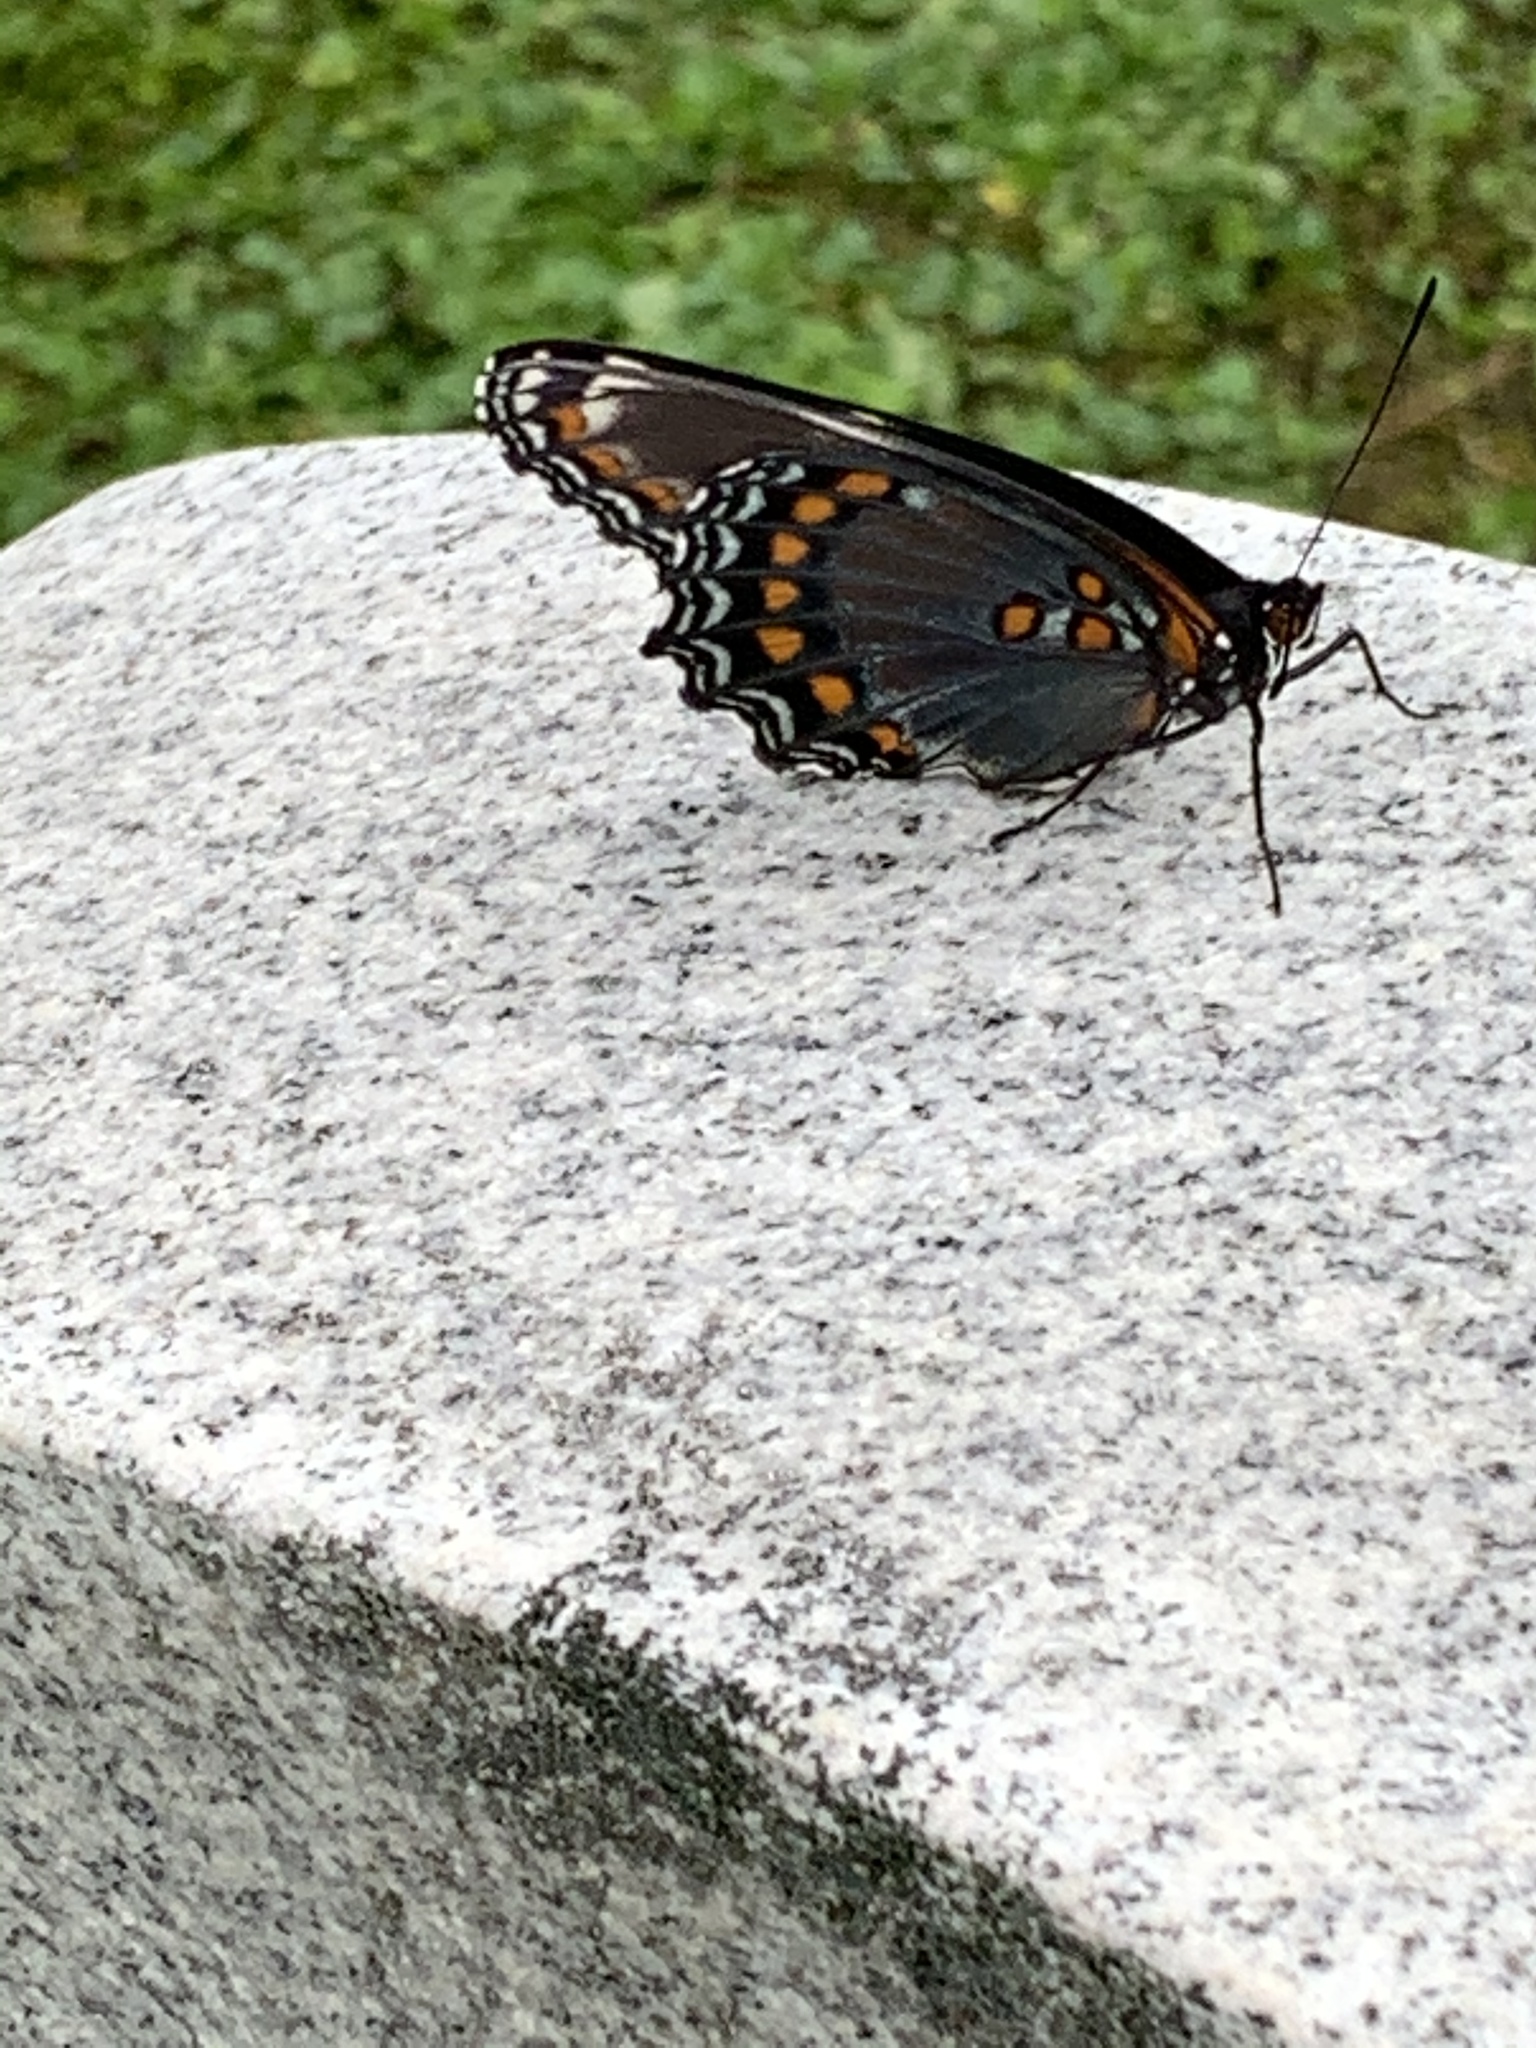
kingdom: Animalia
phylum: Arthropoda
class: Insecta
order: Lepidoptera
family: Nymphalidae
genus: Limenitis
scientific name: Limenitis astyanax
